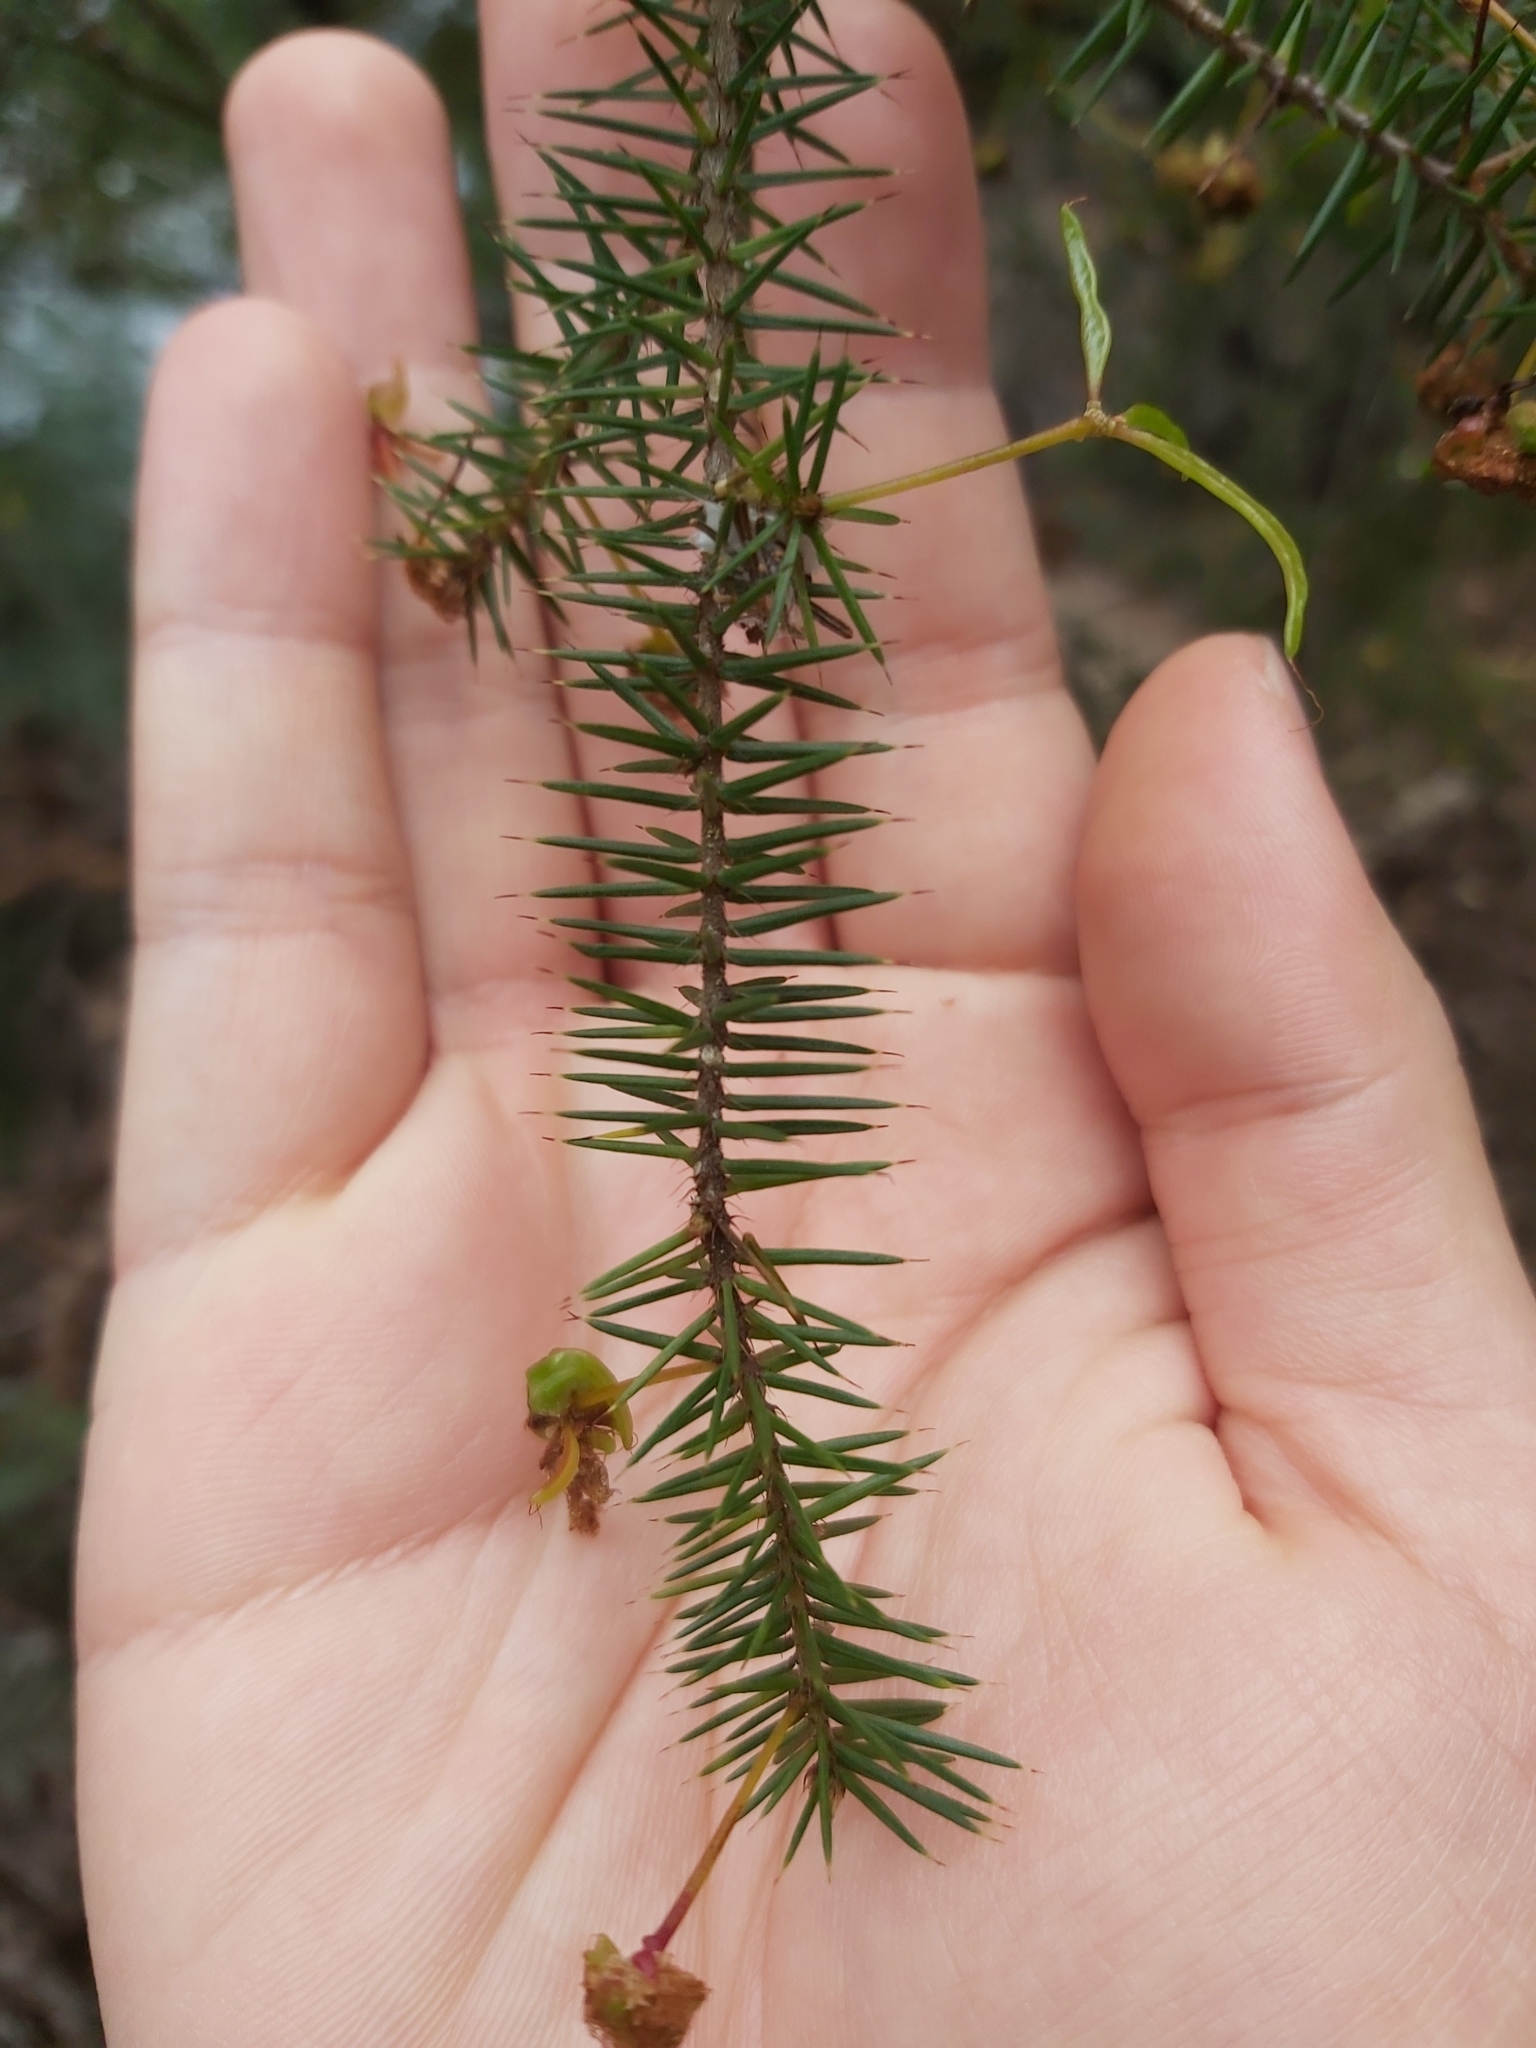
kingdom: Plantae
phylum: Tracheophyta
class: Magnoliopsida
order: Fabales
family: Fabaceae
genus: Acacia
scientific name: Acacia ulicifolia
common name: Juniper wattle
